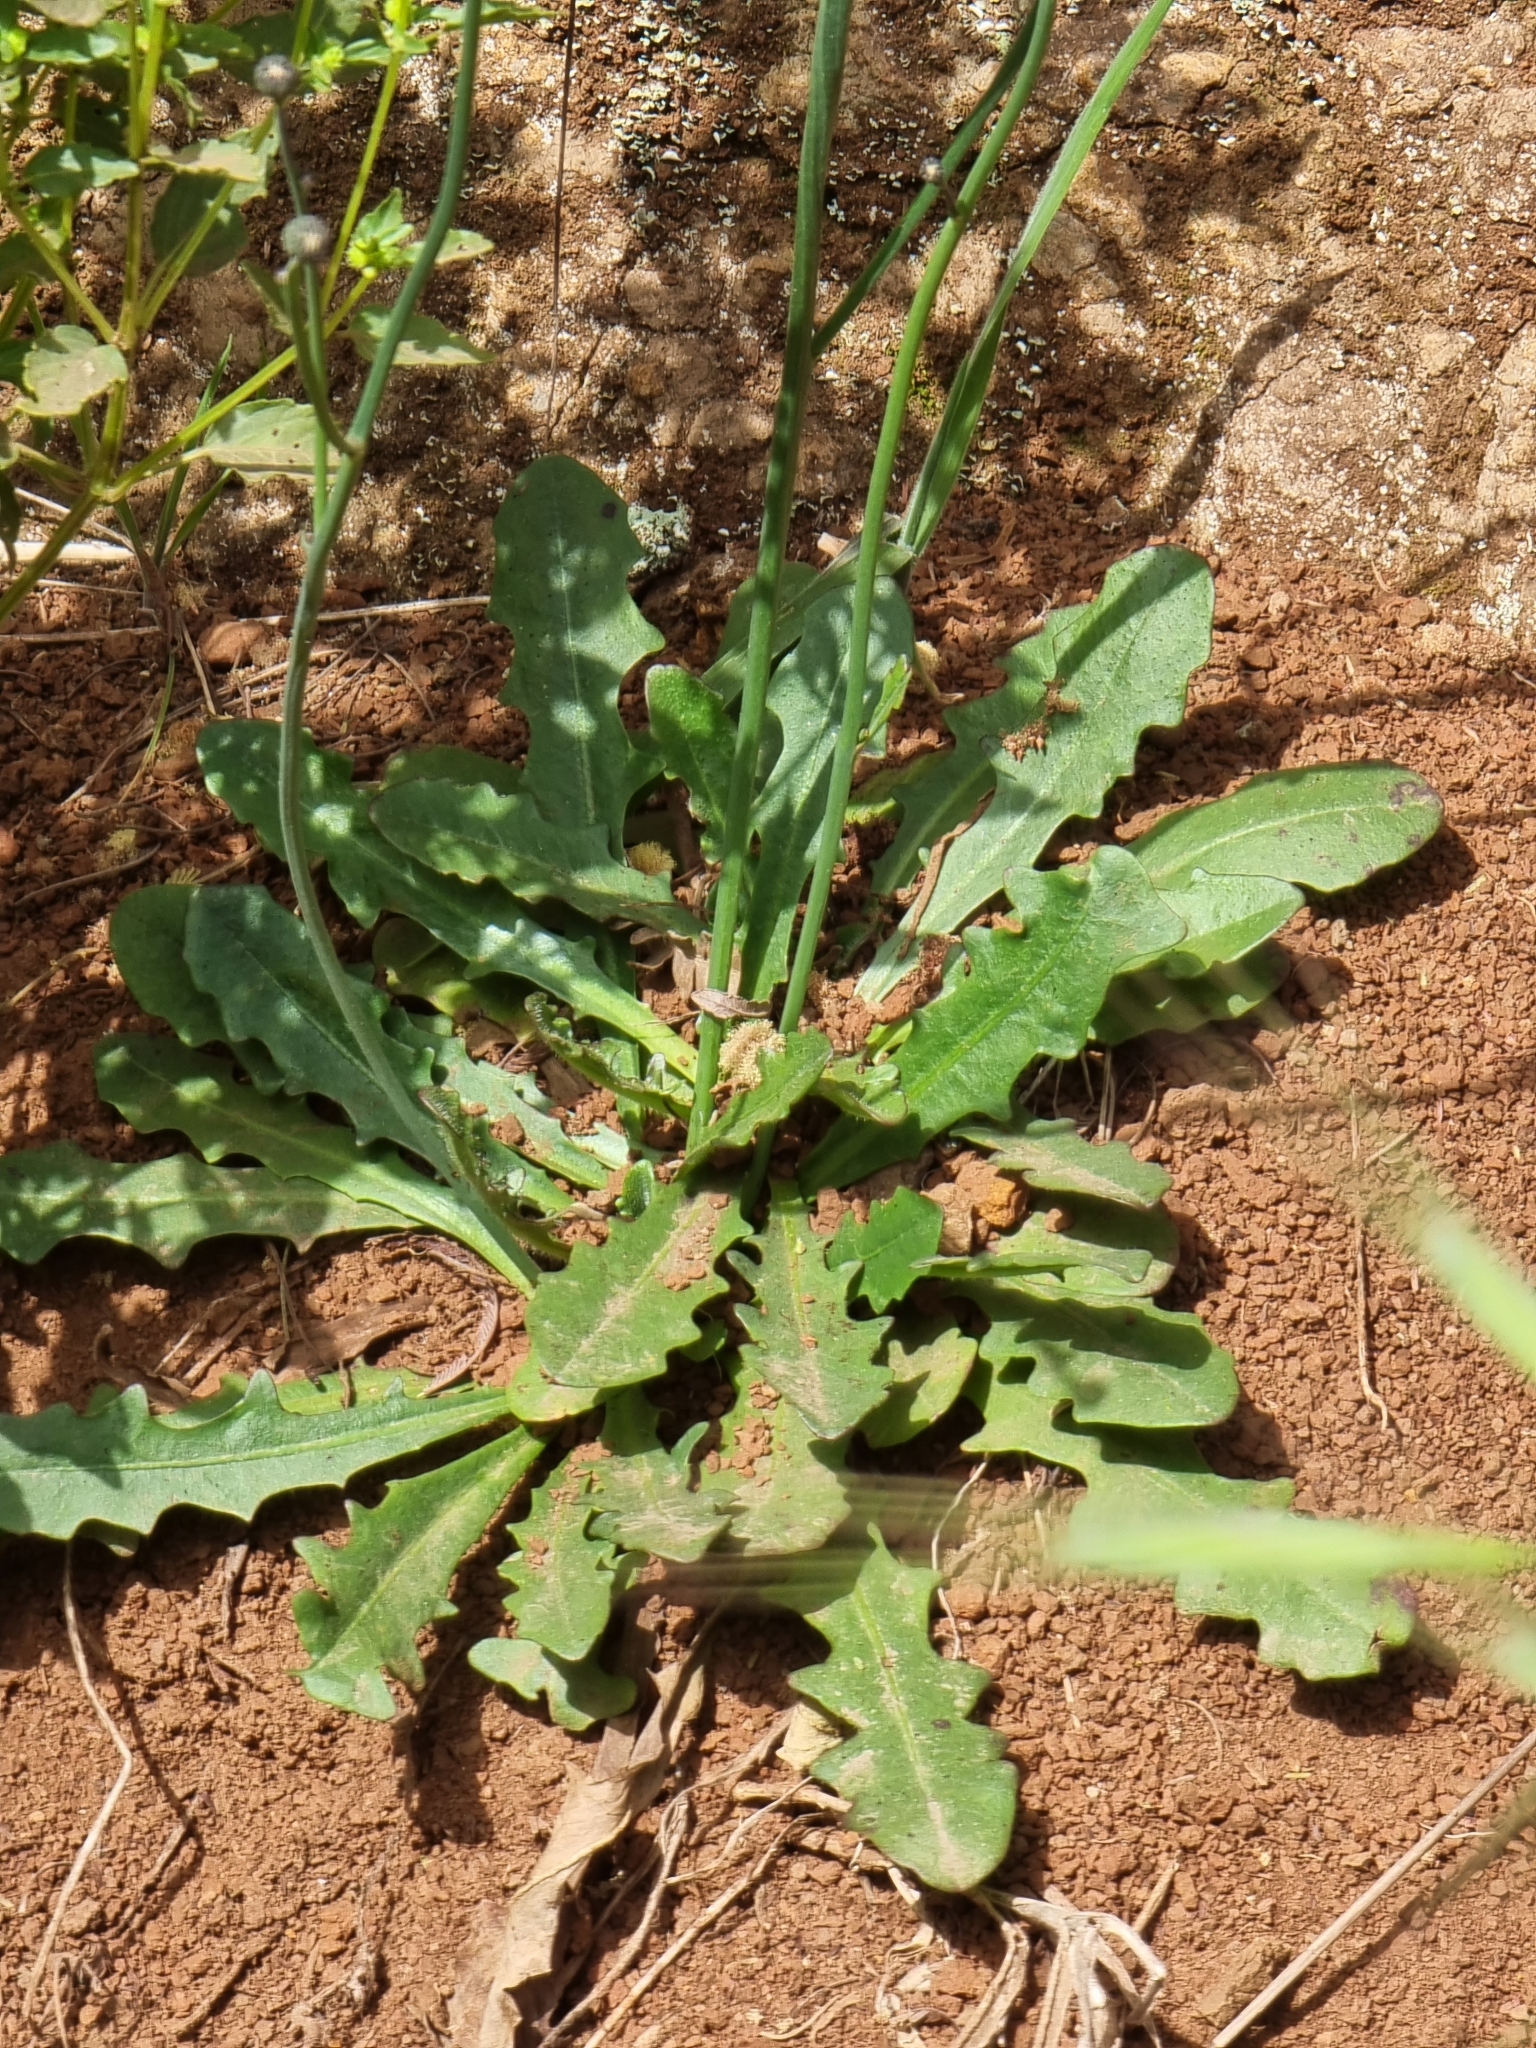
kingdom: Plantae
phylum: Tracheophyta
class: Magnoliopsida
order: Asterales
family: Asteraceae
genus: Hypochaeris
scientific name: Hypochaeris radicata
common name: Flatweed
